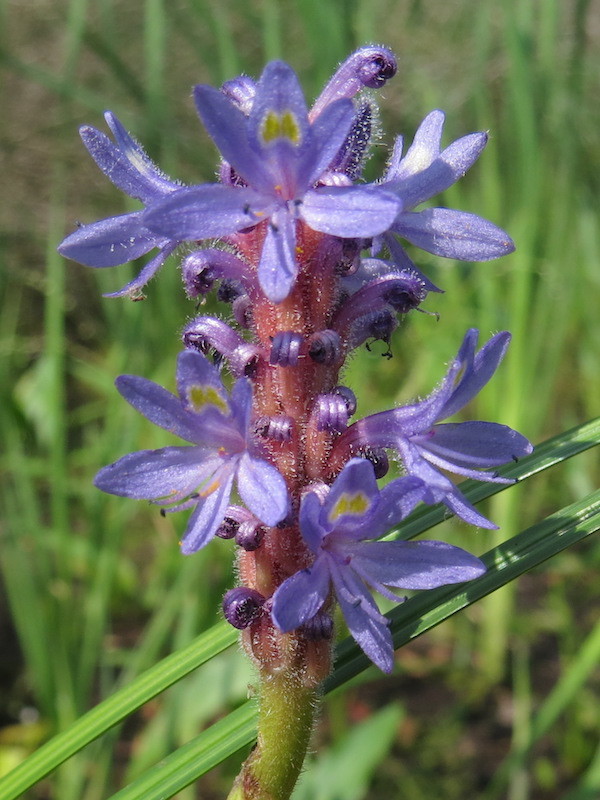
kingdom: Plantae
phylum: Tracheophyta
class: Liliopsida
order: Commelinales
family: Pontederiaceae
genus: Pontederia
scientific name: Pontederia cordata
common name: Pickerelweed
